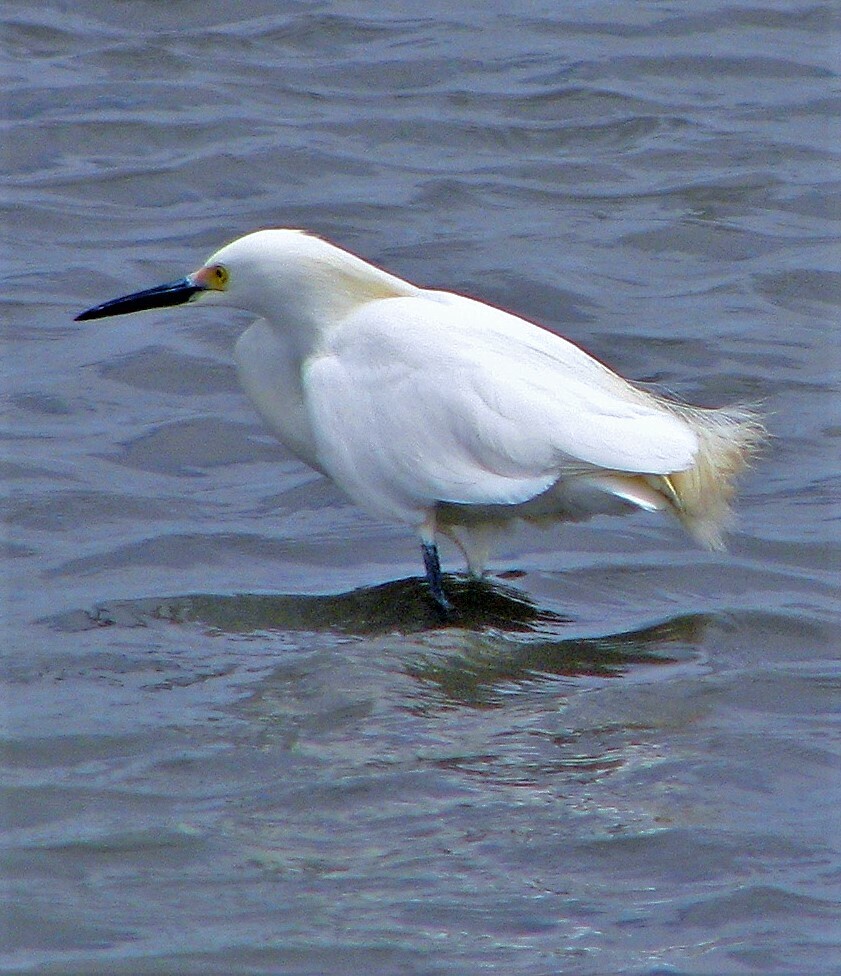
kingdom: Animalia
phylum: Chordata
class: Aves
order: Pelecaniformes
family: Ardeidae
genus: Egretta
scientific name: Egretta thula
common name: Snowy egret
